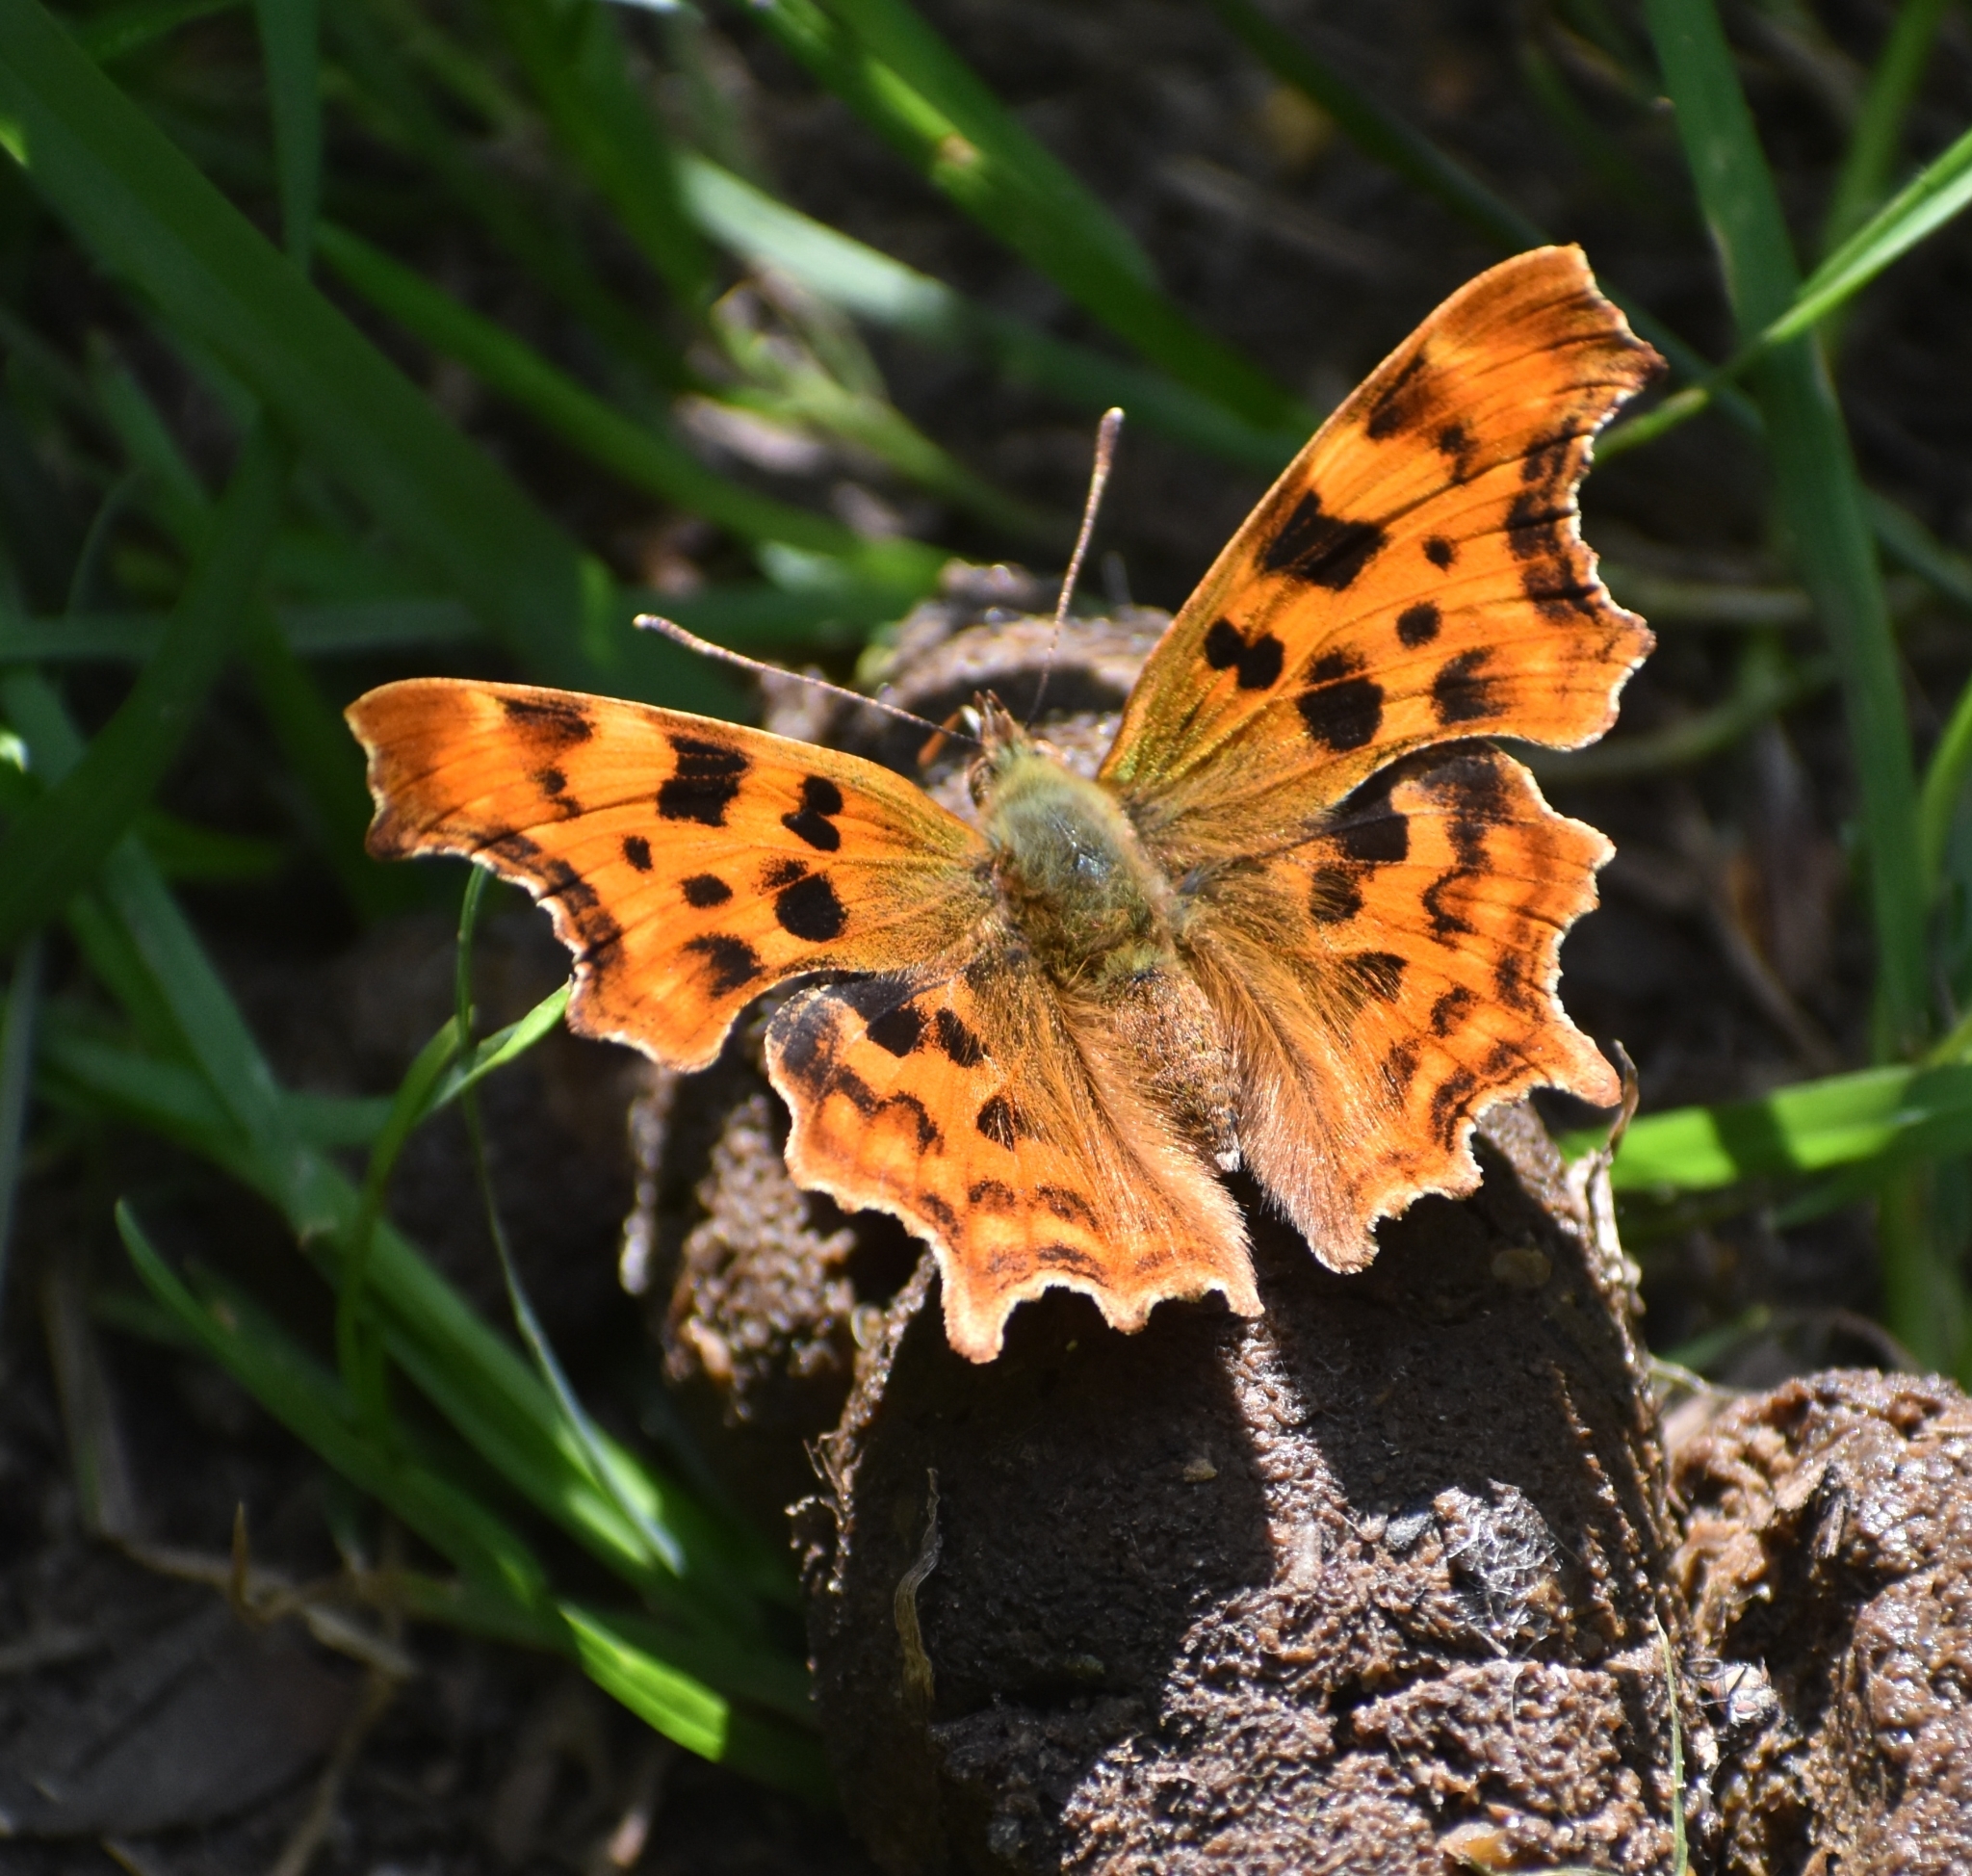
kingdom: Animalia
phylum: Arthropoda
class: Insecta
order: Lepidoptera
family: Nymphalidae
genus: Polygonia
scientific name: Polygonia c-album
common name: Comma
